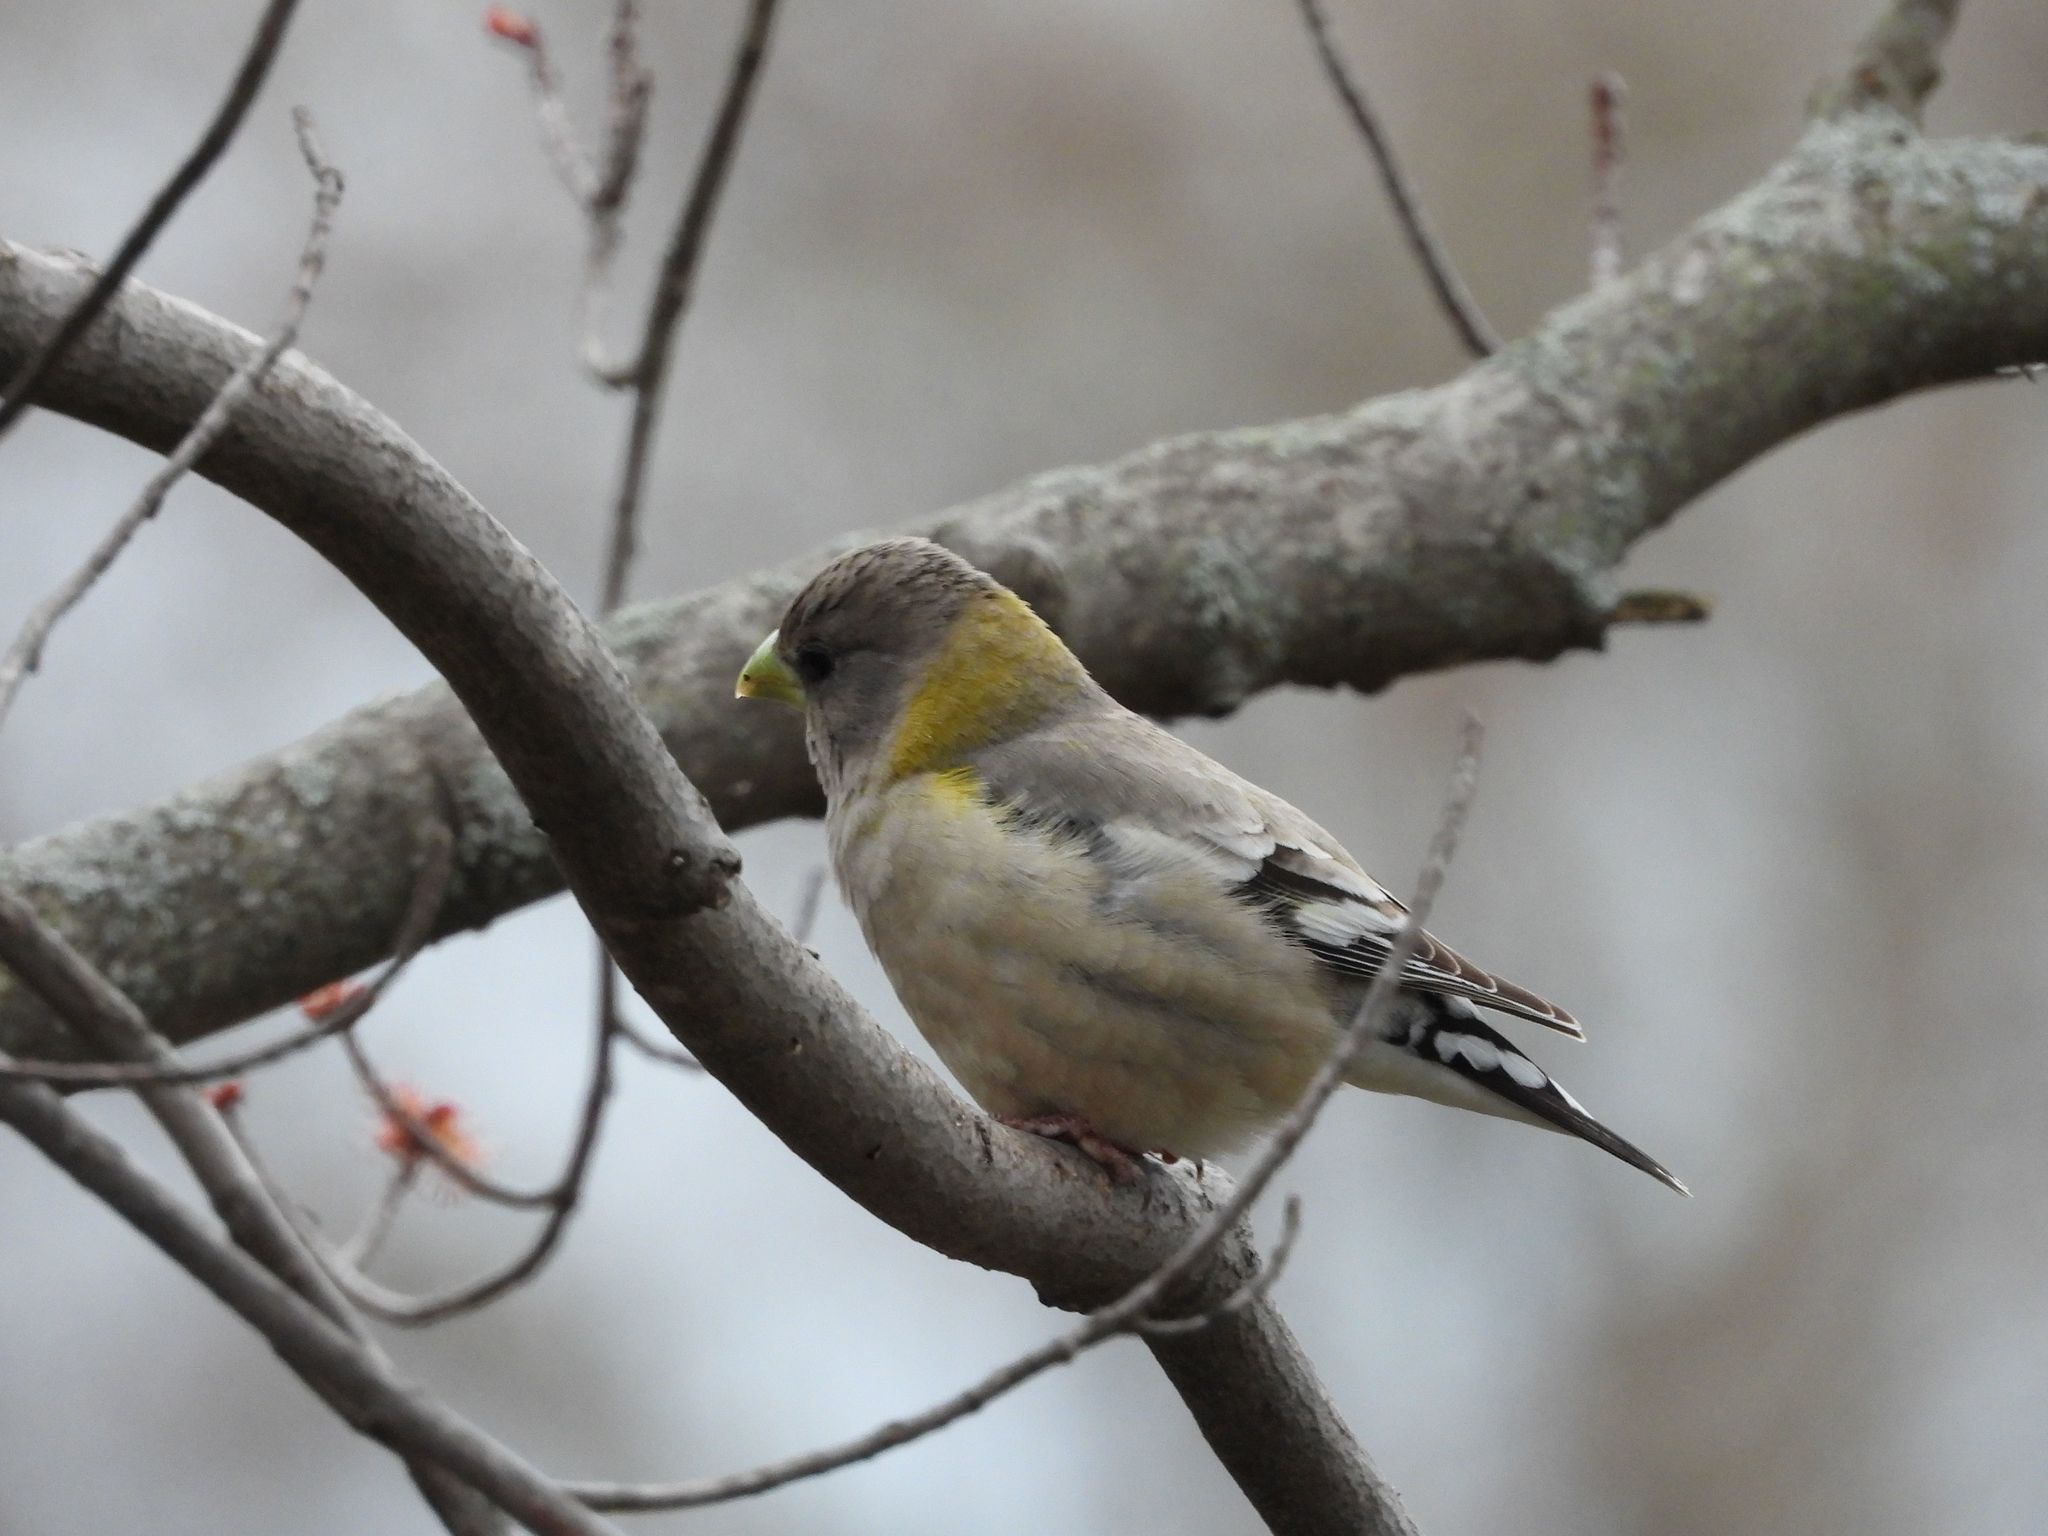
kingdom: Animalia
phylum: Chordata
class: Aves
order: Passeriformes
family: Fringillidae
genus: Hesperiphona
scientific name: Hesperiphona vespertina
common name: Evening grosbeak
